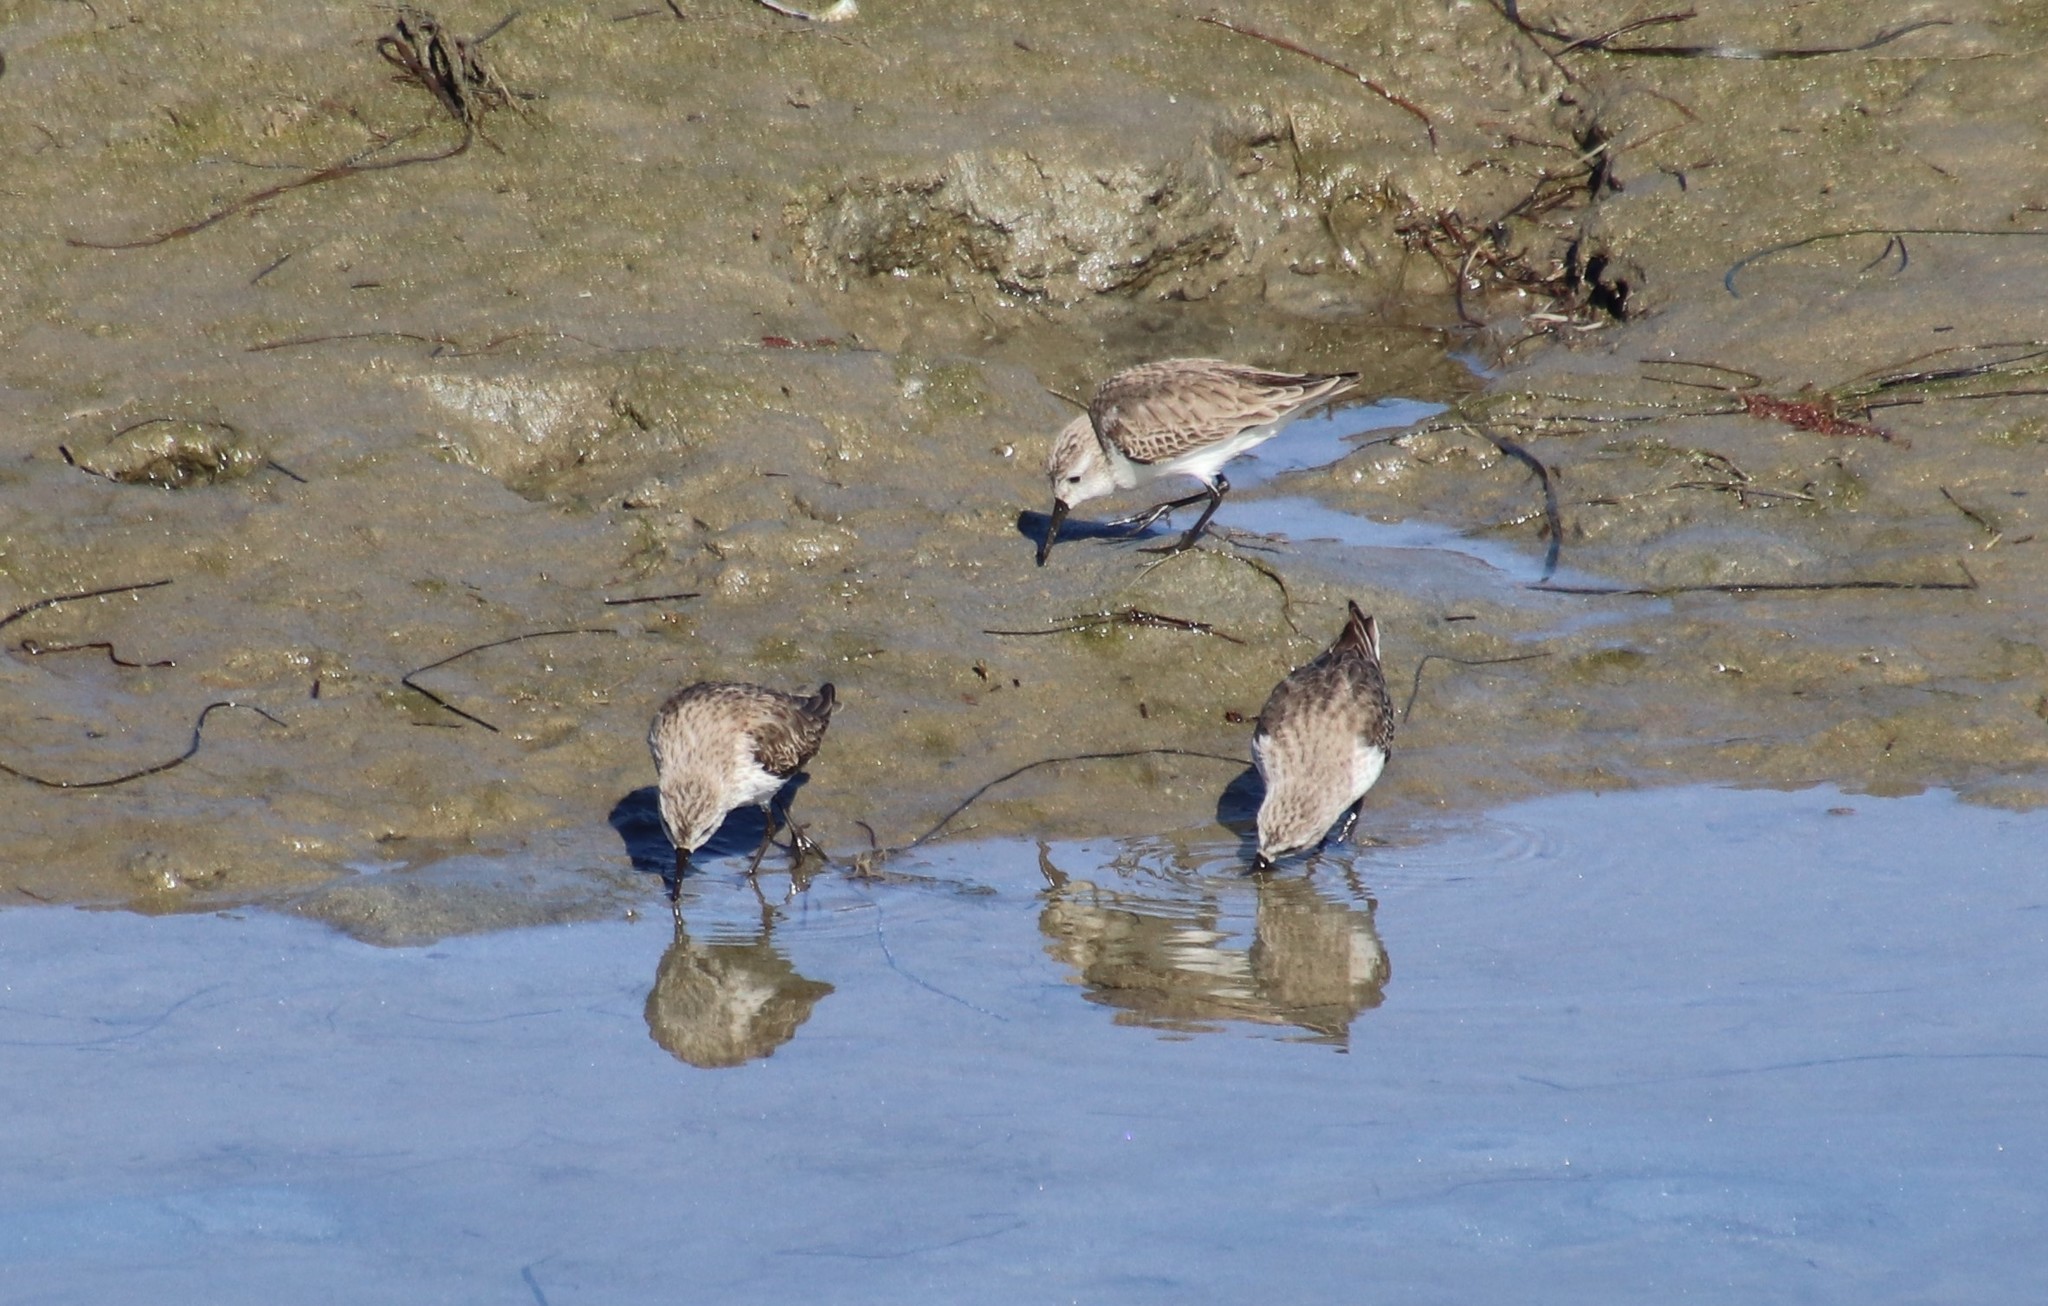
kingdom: Animalia
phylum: Chordata
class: Aves
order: Charadriiformes
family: Scolopacidae
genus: Calidris
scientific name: Calidris mauri
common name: Western sandpiper
